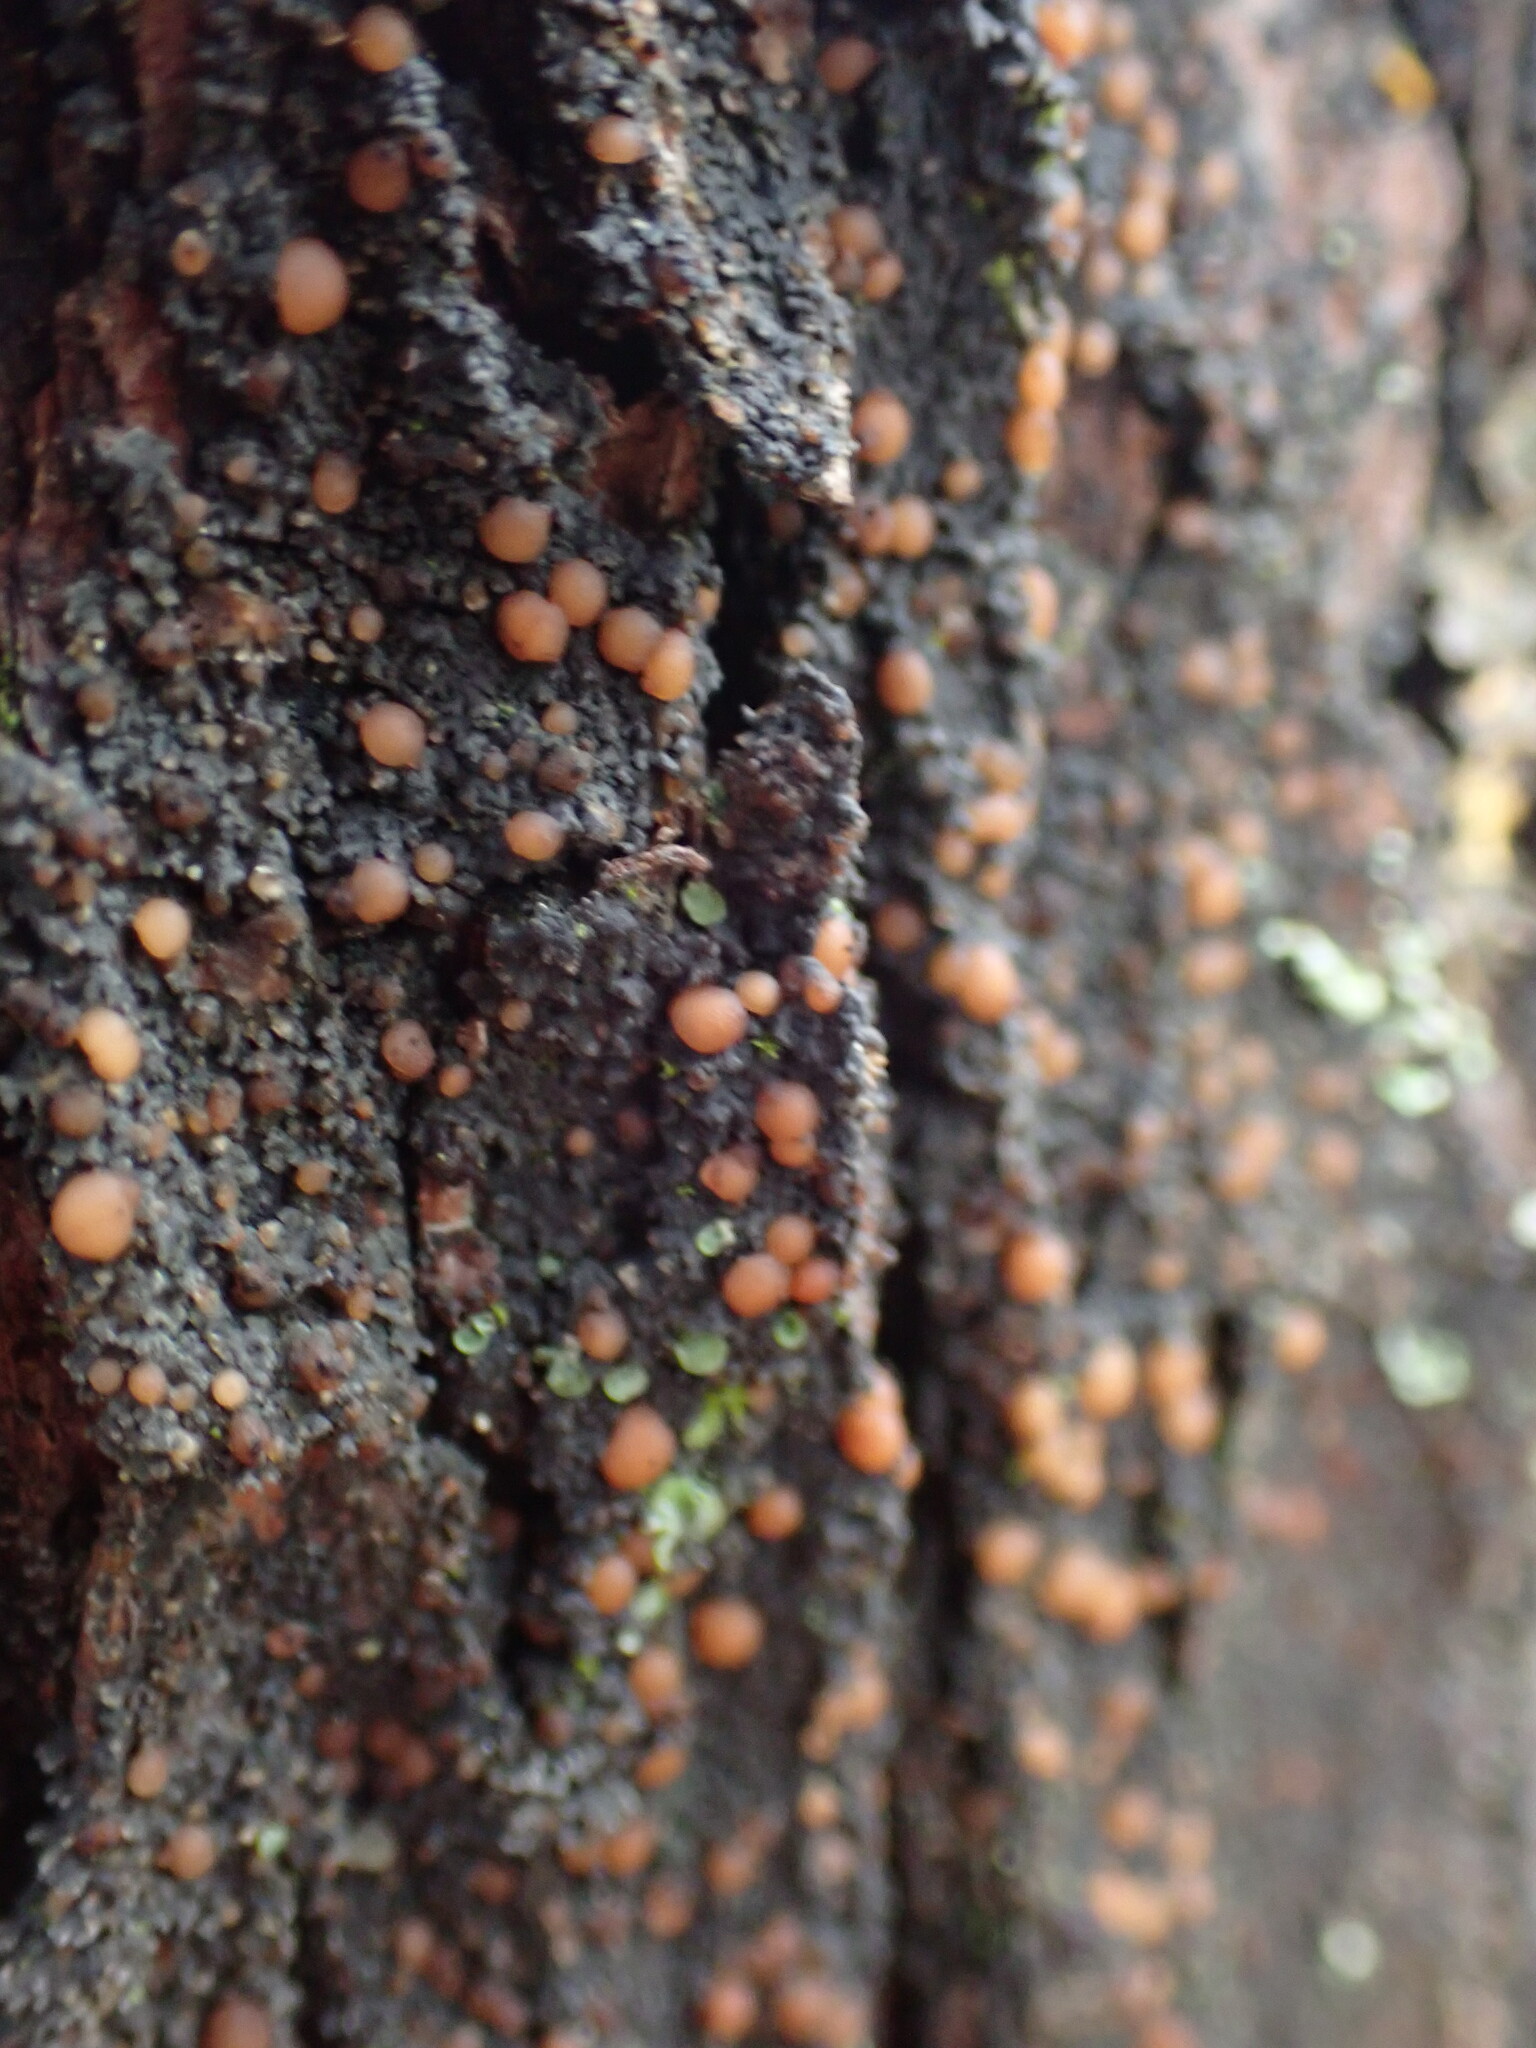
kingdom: Fungi
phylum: Ascomycota
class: Lecanoromycetes
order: Peltigerales
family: Vahliellaceae
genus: Vahliella
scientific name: Vahliella saubinetii
